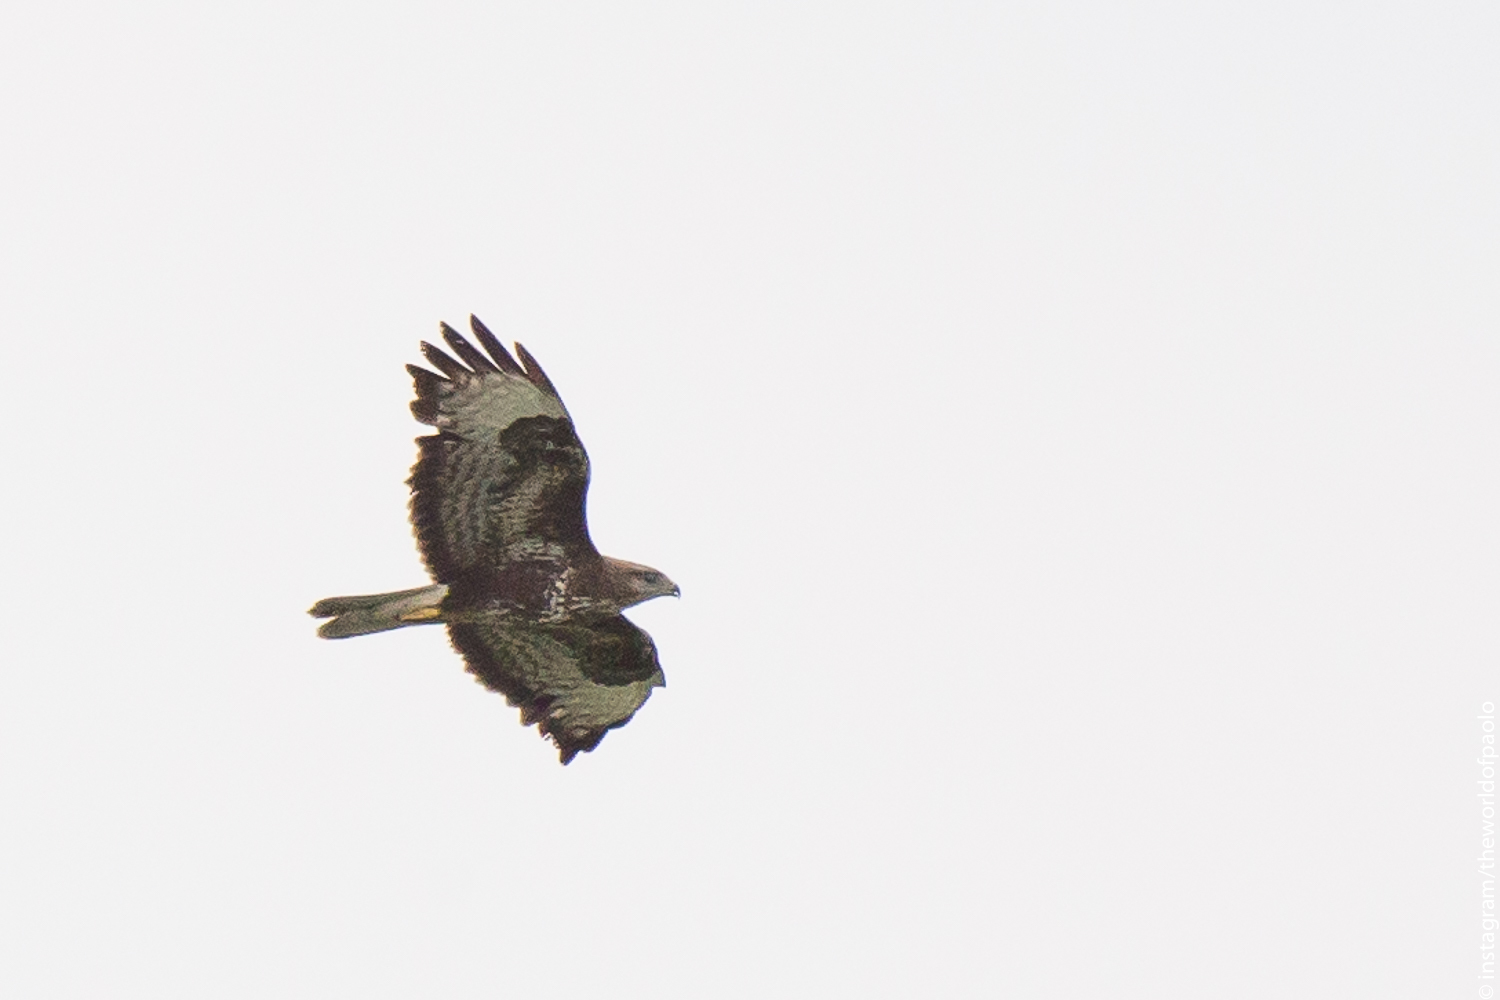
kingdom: Animalia
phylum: Chordata
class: Aves
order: Accipitriformes
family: Accipitridae
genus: Buteo
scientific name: Buteo buteo
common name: Common buzzard
